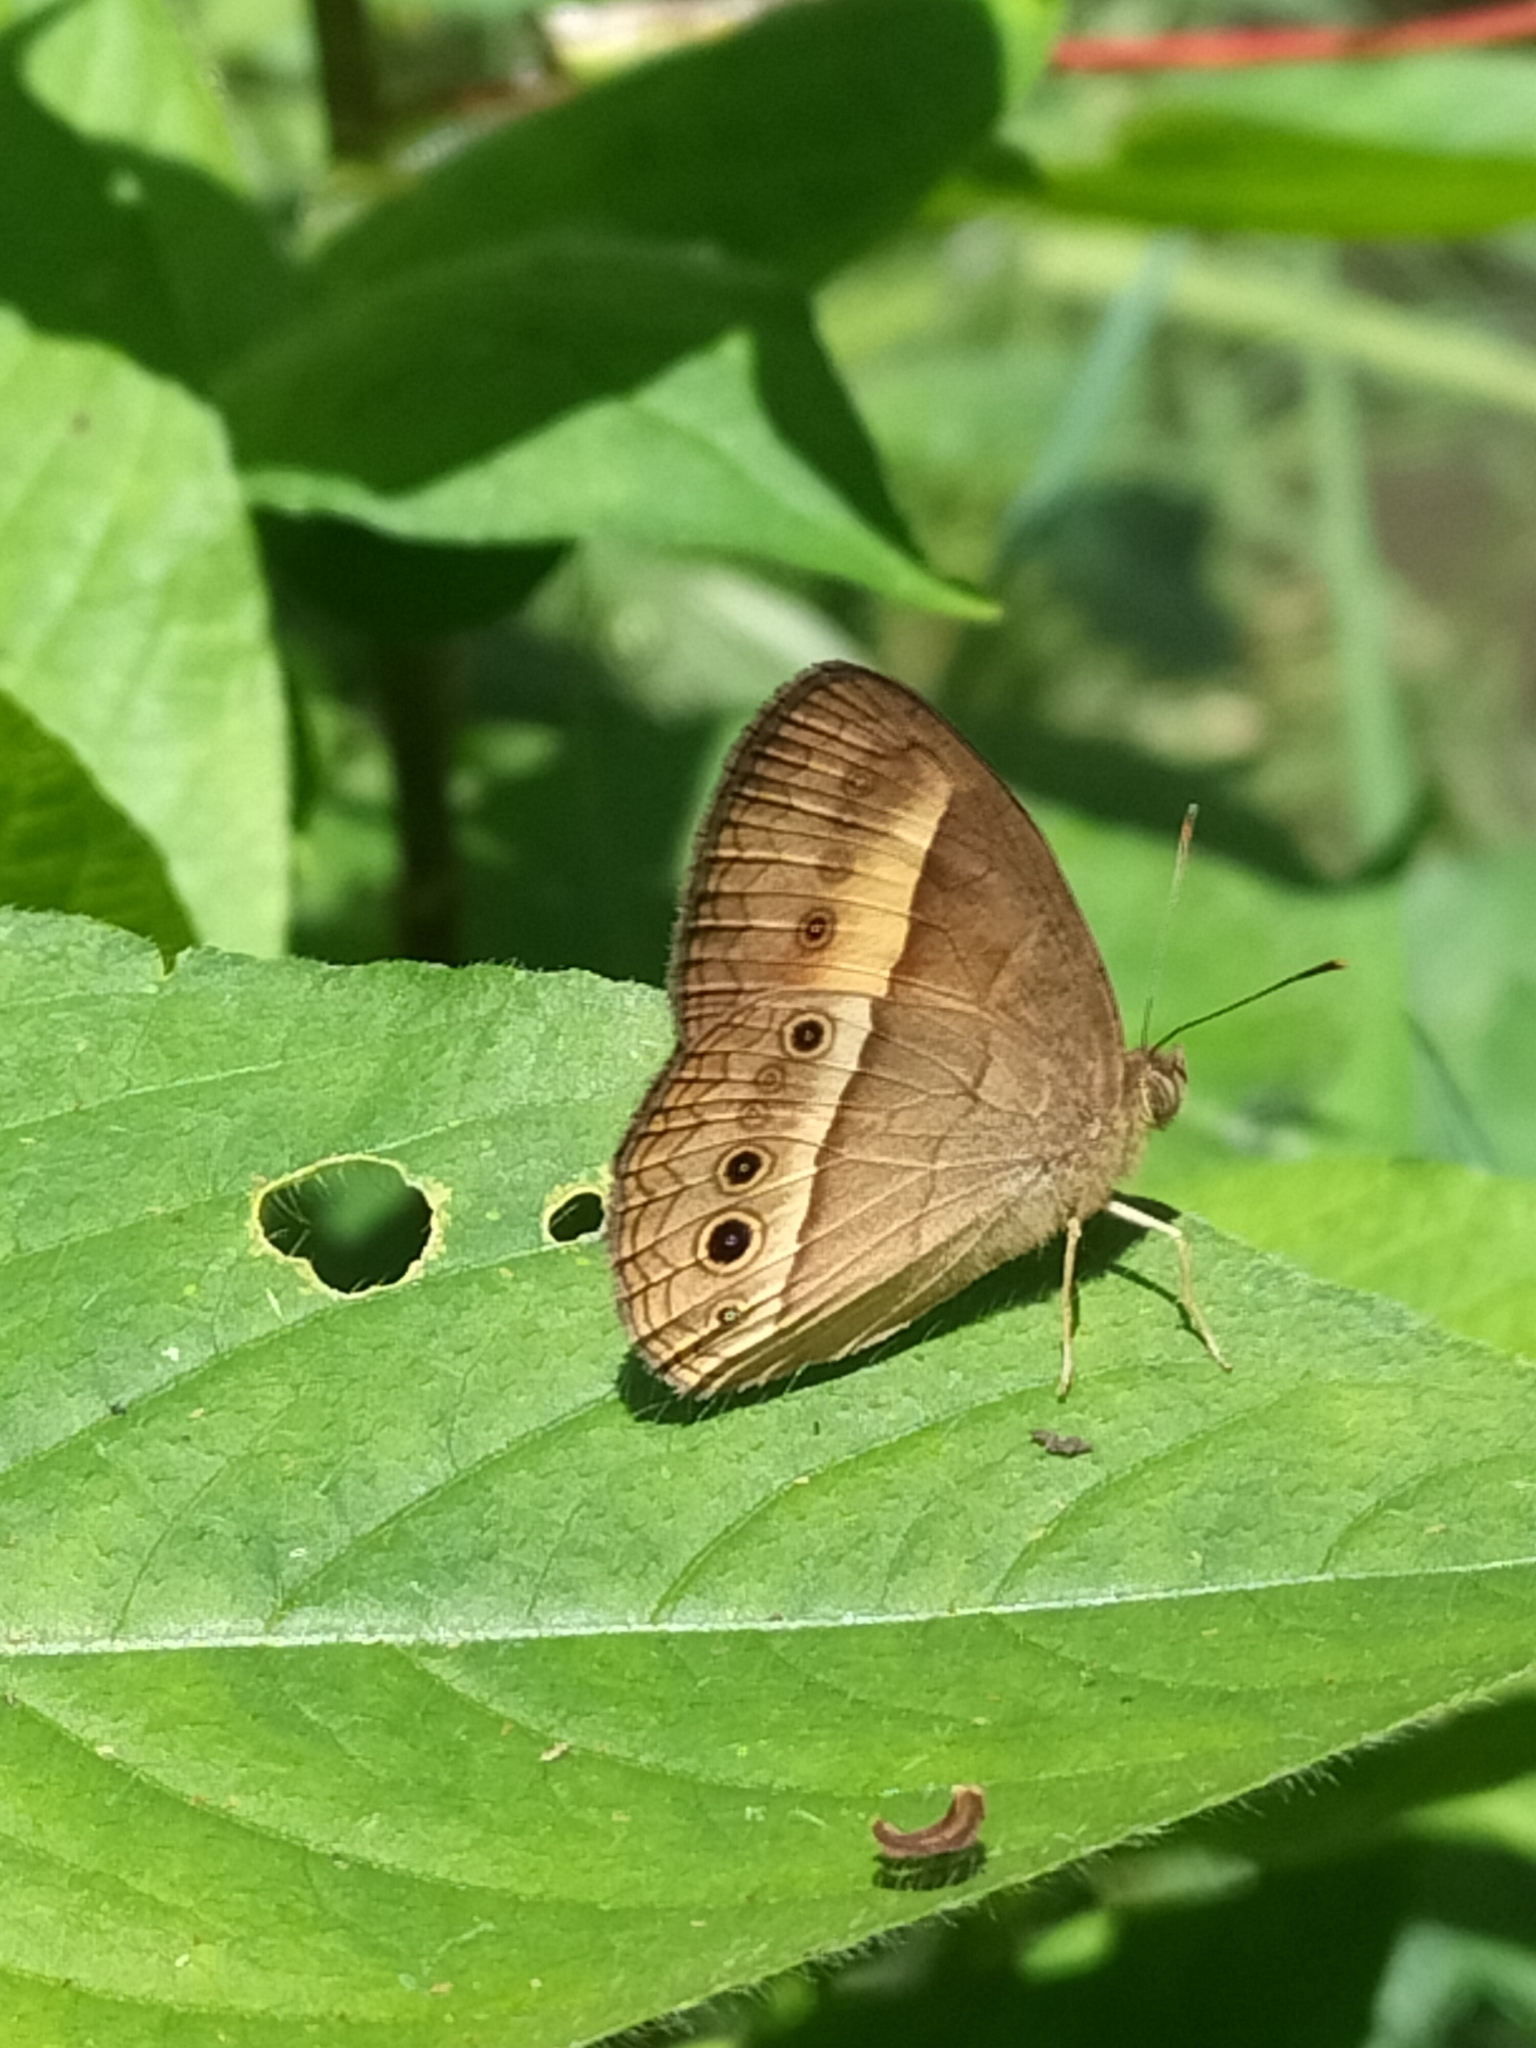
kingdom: Animalia
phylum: Arthropoda
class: Insecta
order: Lepidoptera
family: Nymphalidae
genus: Mycalesis
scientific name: Mycalesis terminus
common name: Orange bushbrown
